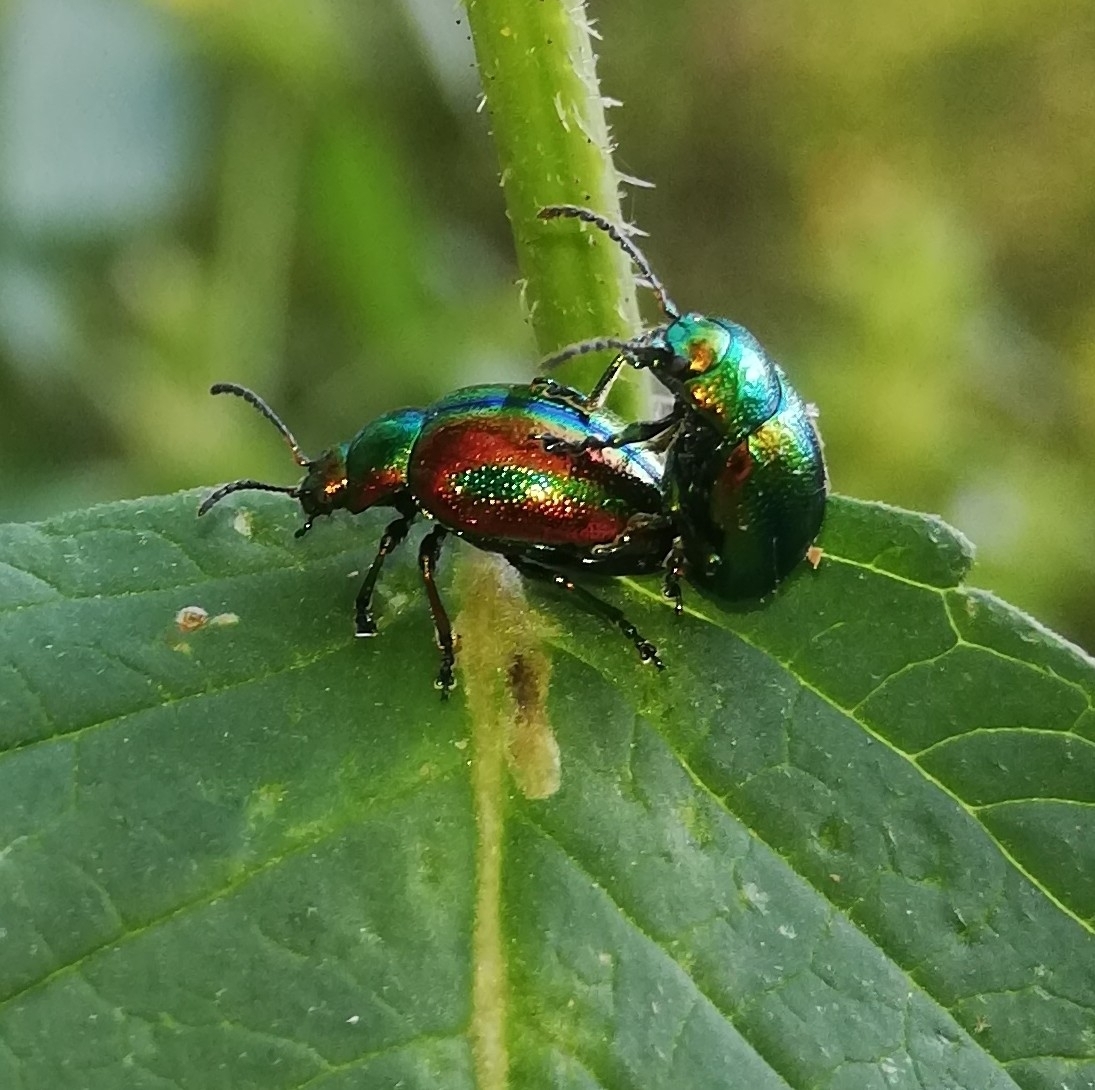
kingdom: Animalia
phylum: Arthropoda
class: Insecta
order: Coleoptera
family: Chrysomelidae
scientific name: Chrysomelidae
